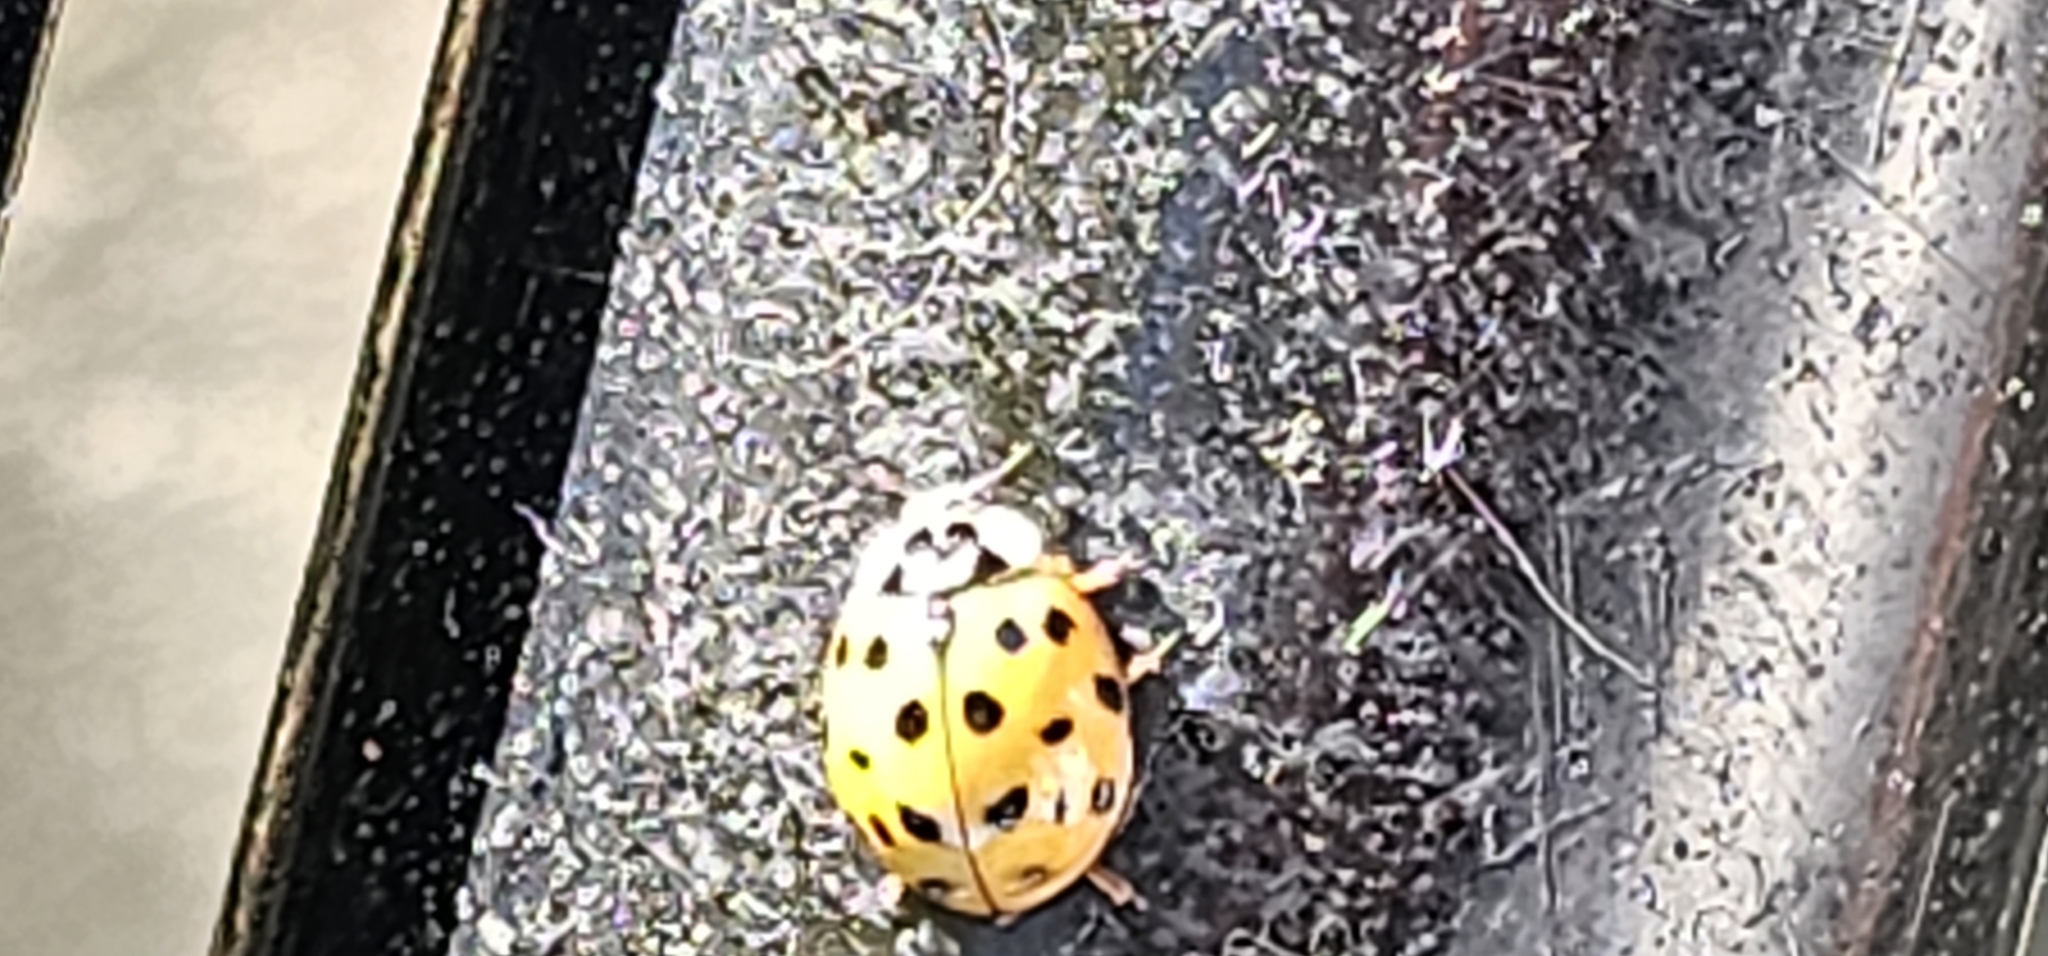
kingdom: Animalia
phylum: Arthropoda
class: Insecta
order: Coleoptera
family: Coccinellidae
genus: Harmonia
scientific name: Harmonia axyridis
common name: Harlequin ladybird
